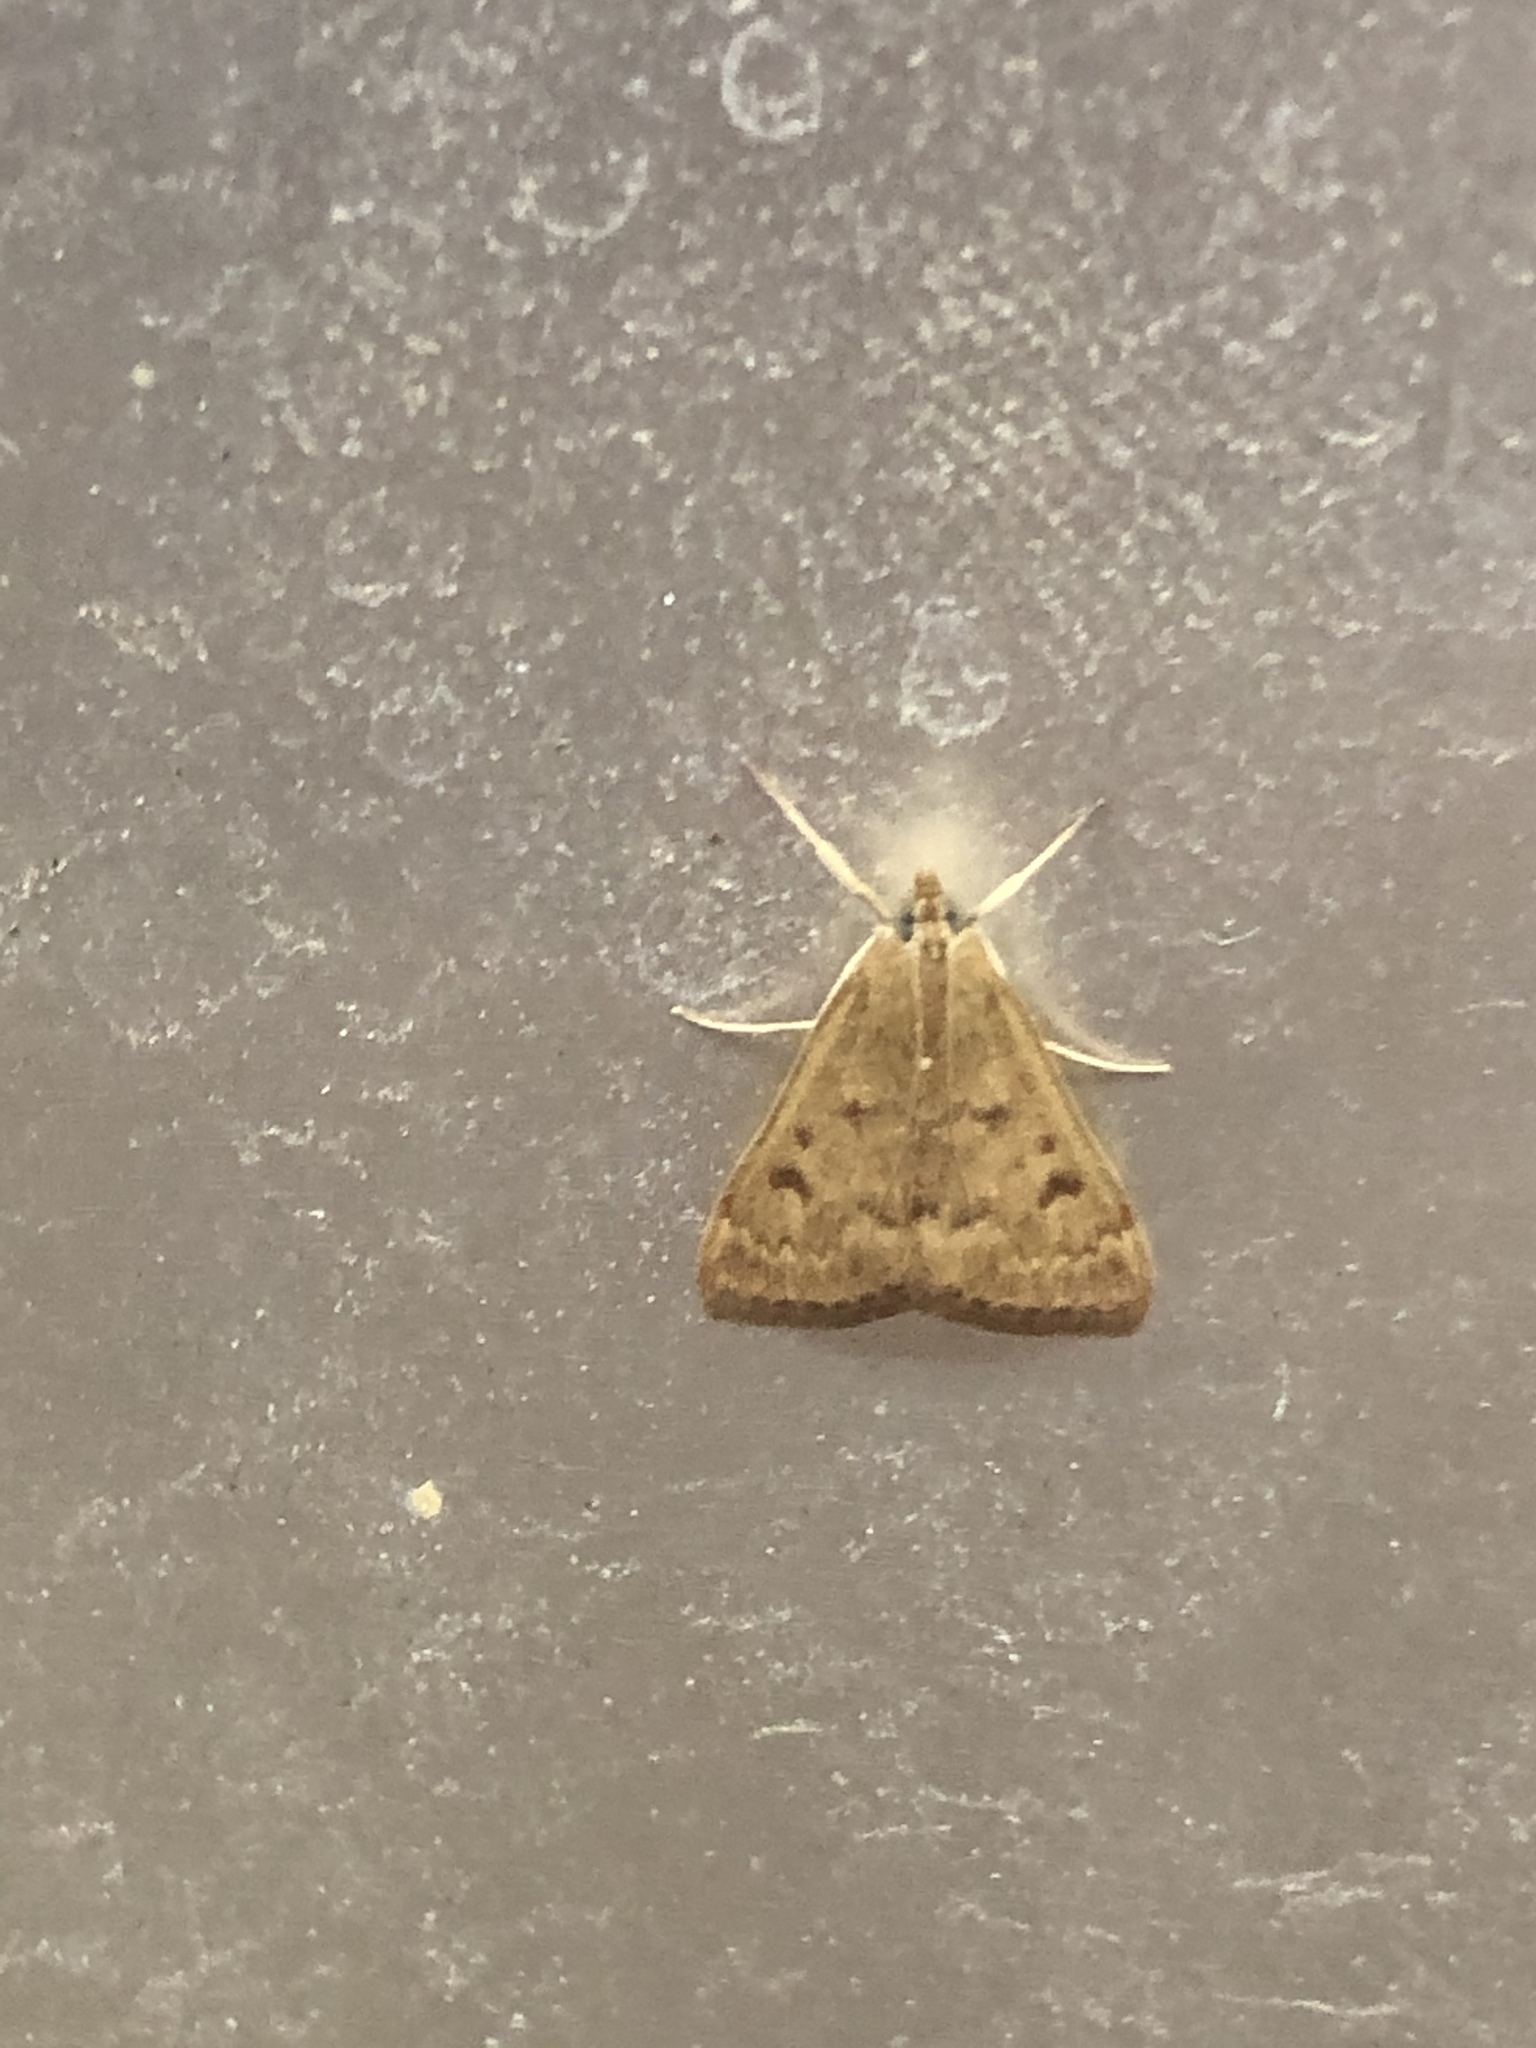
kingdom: Animalia
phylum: Arthropoda
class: Insecta
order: Lepidoptera
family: Crambidae
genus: Achyra
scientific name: Achyra rantalis
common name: Garden webworm
